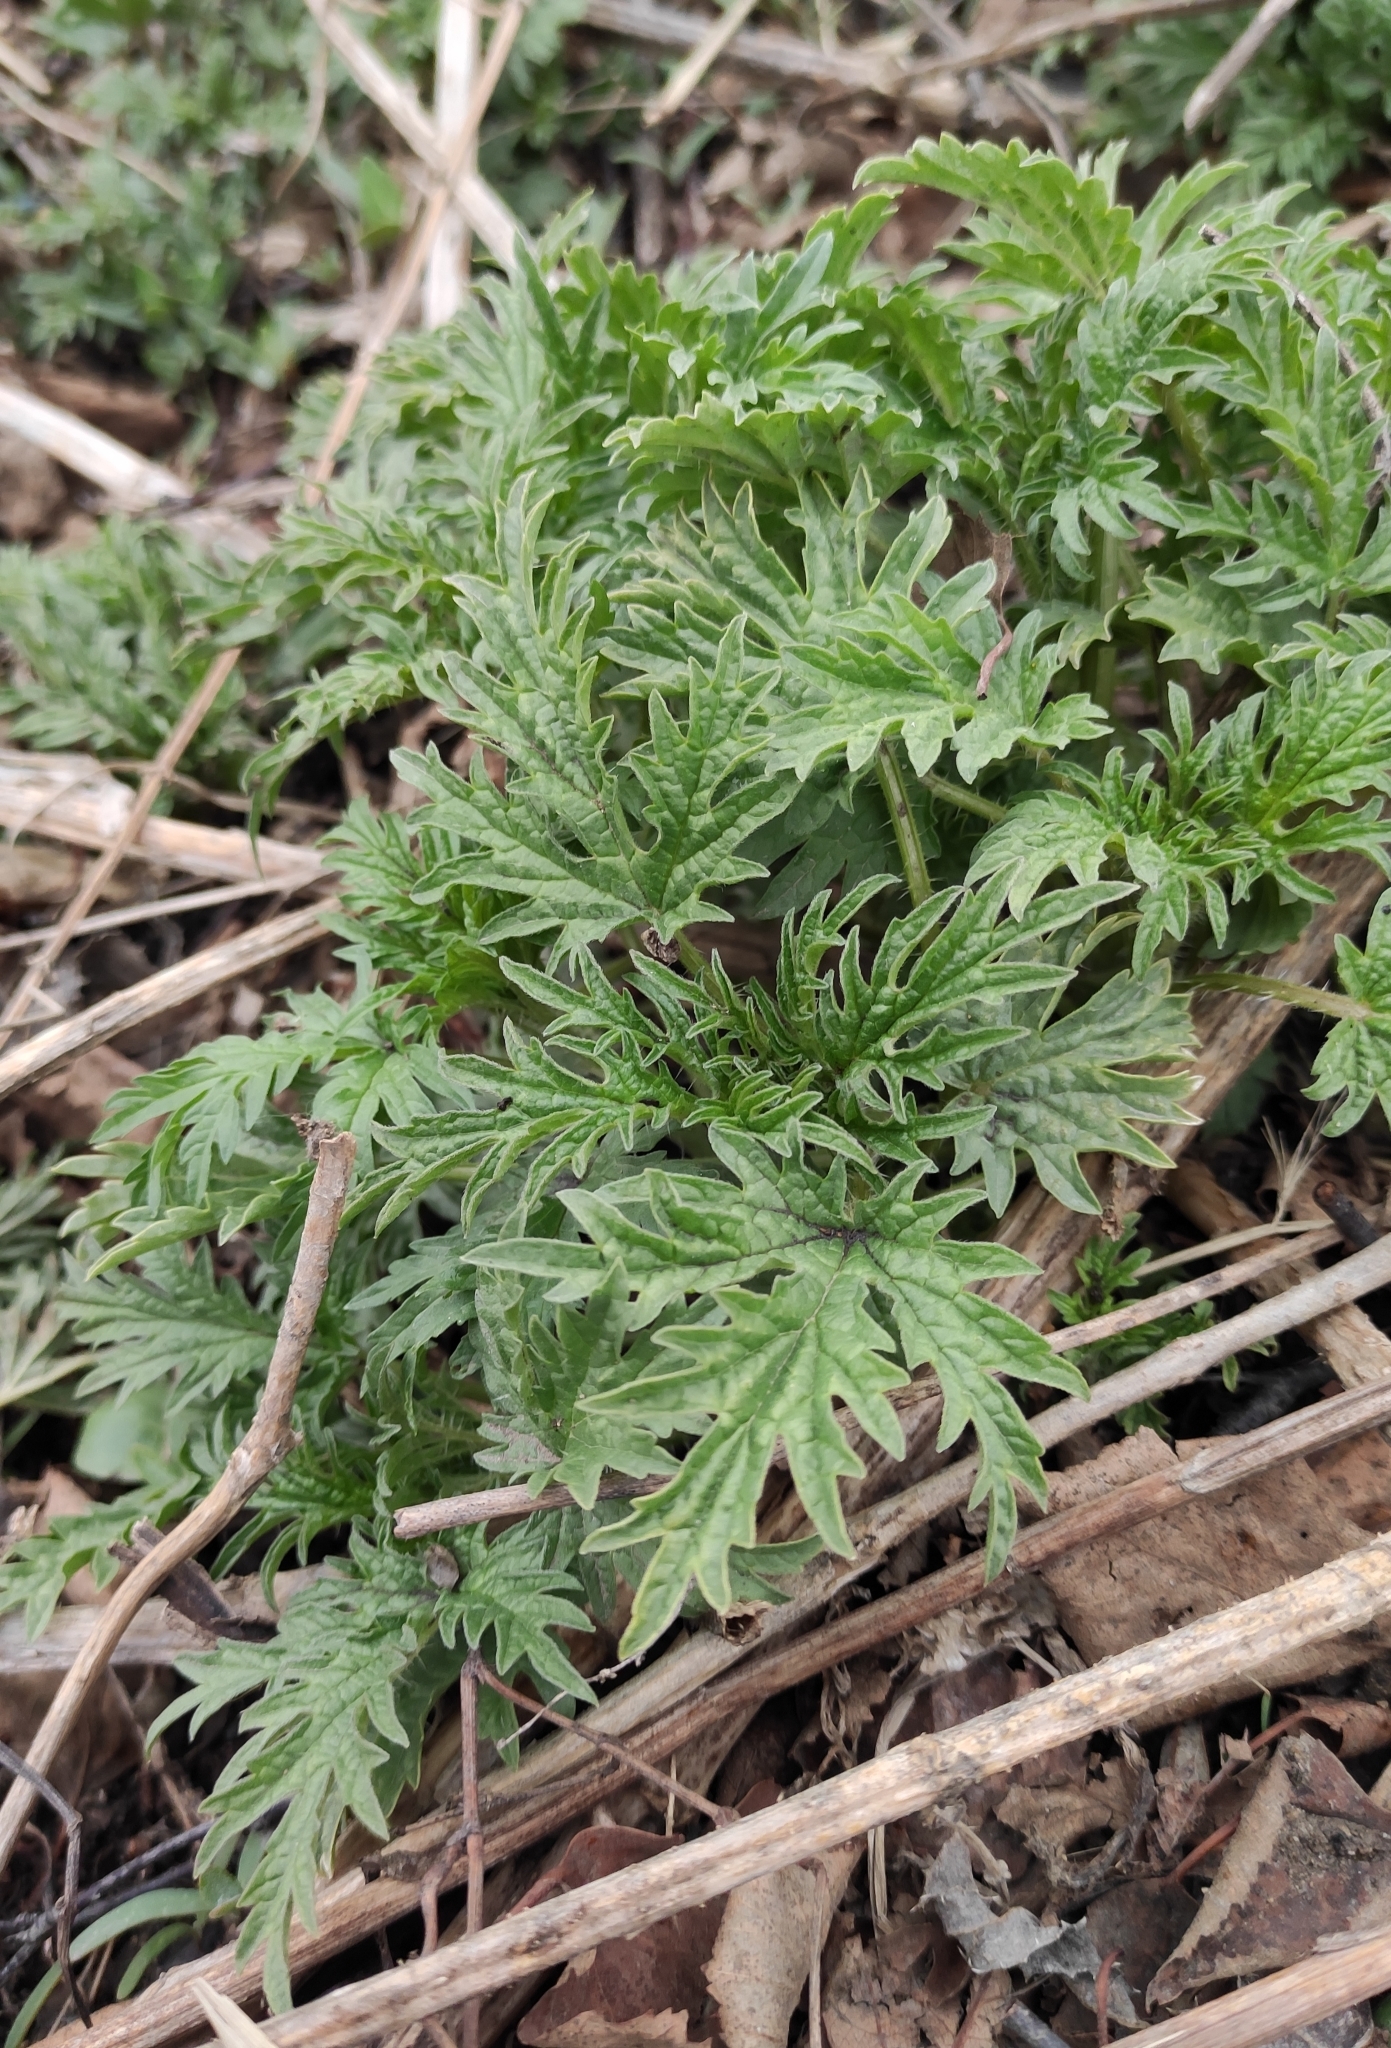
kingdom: Plantae
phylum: Tracheophyta
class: Magnoliopsida
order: Rosales
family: Urticaceae
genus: Urtica
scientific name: Urtica cannabina
